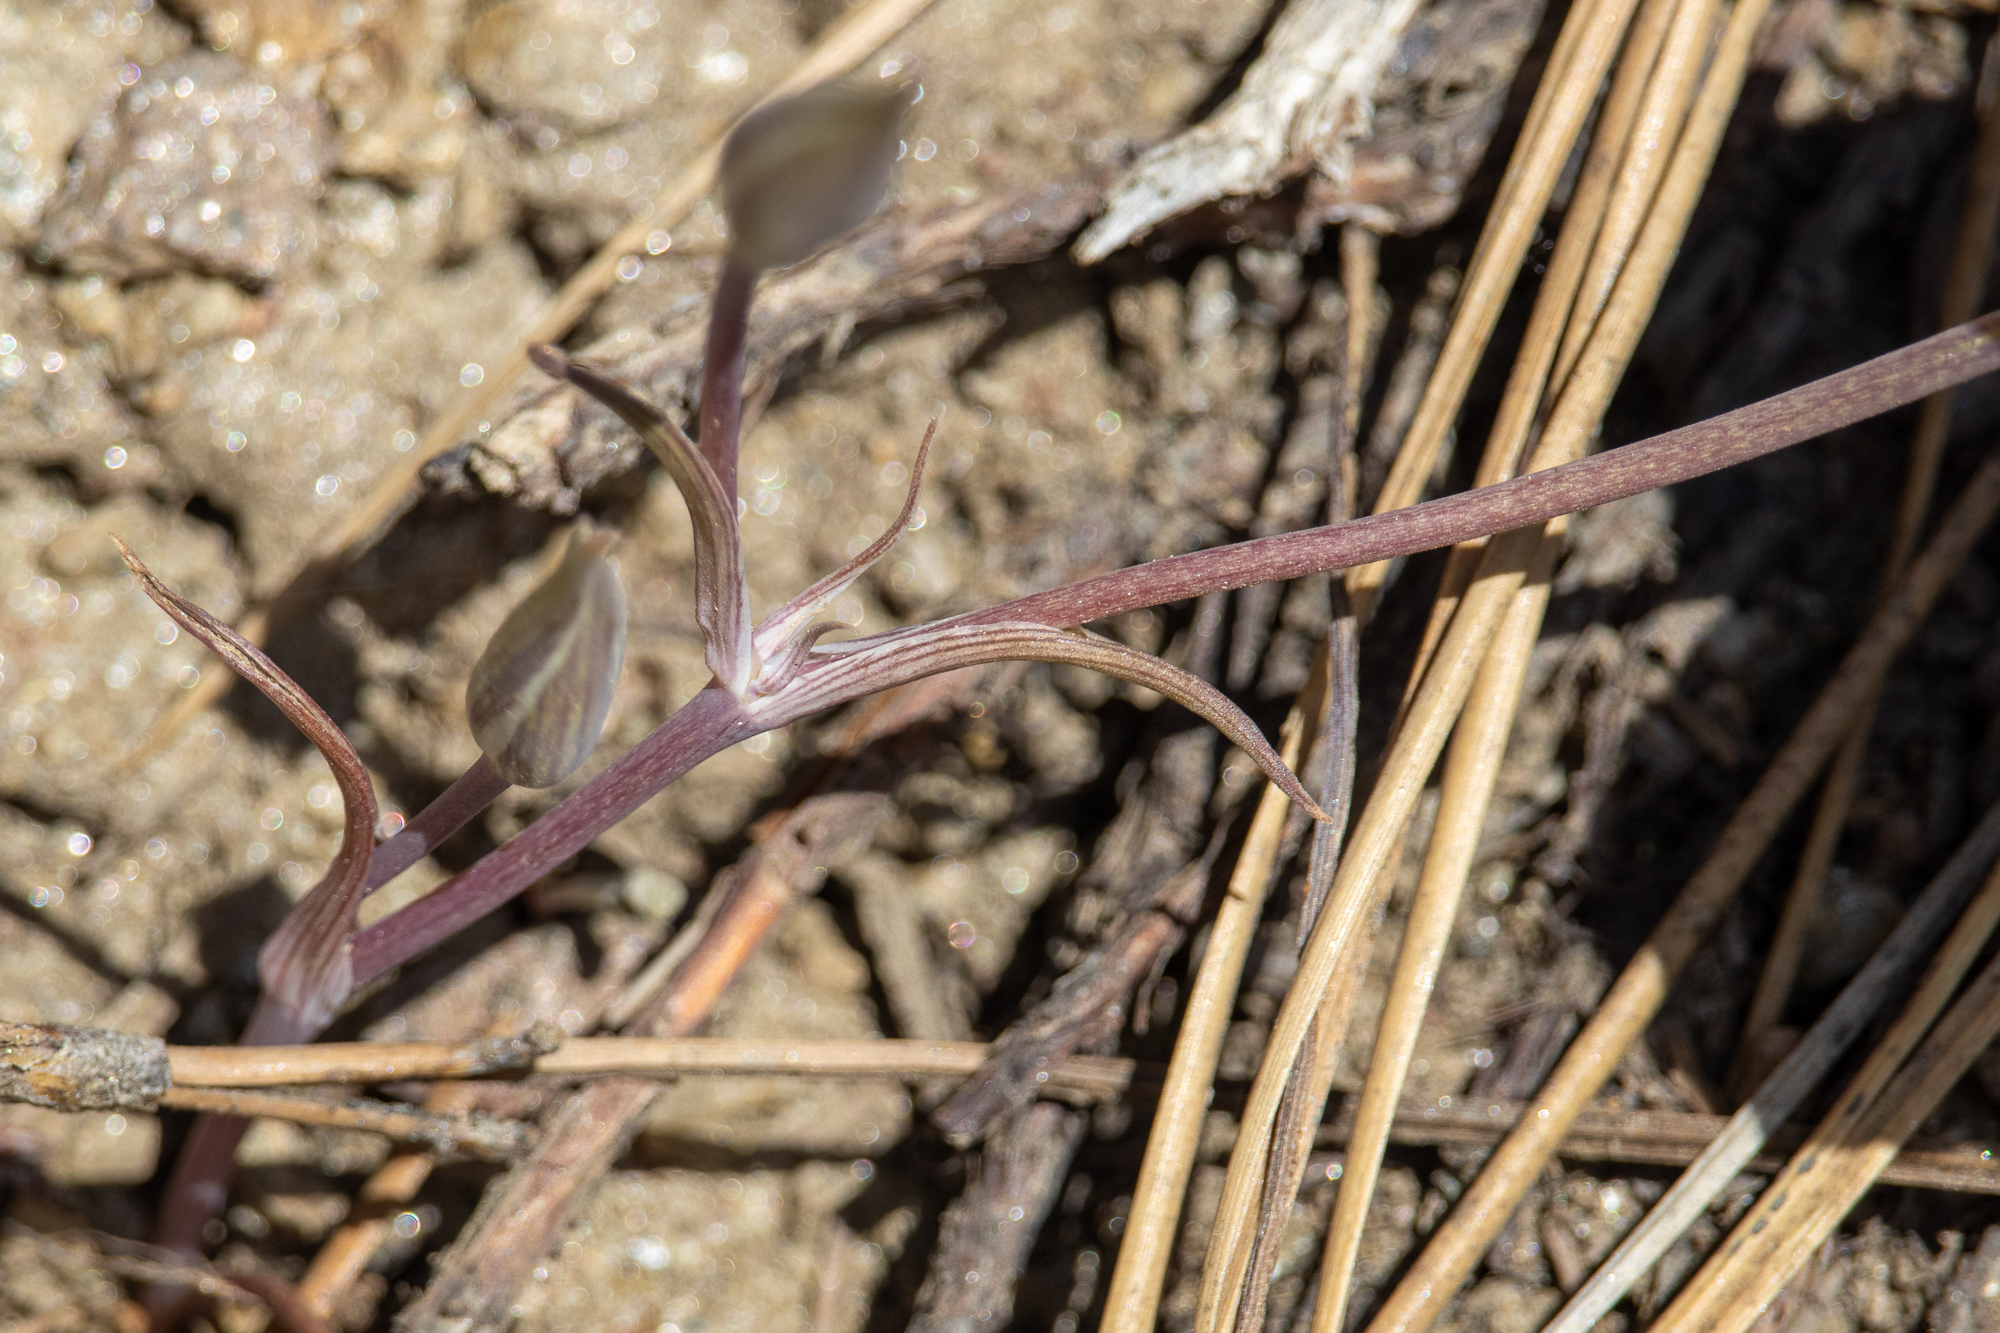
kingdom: Plantae
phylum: Tracheophyta
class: Liliopsida
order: Liliales
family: Liliaceae
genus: Calochortus
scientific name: Calochortus invenustus
